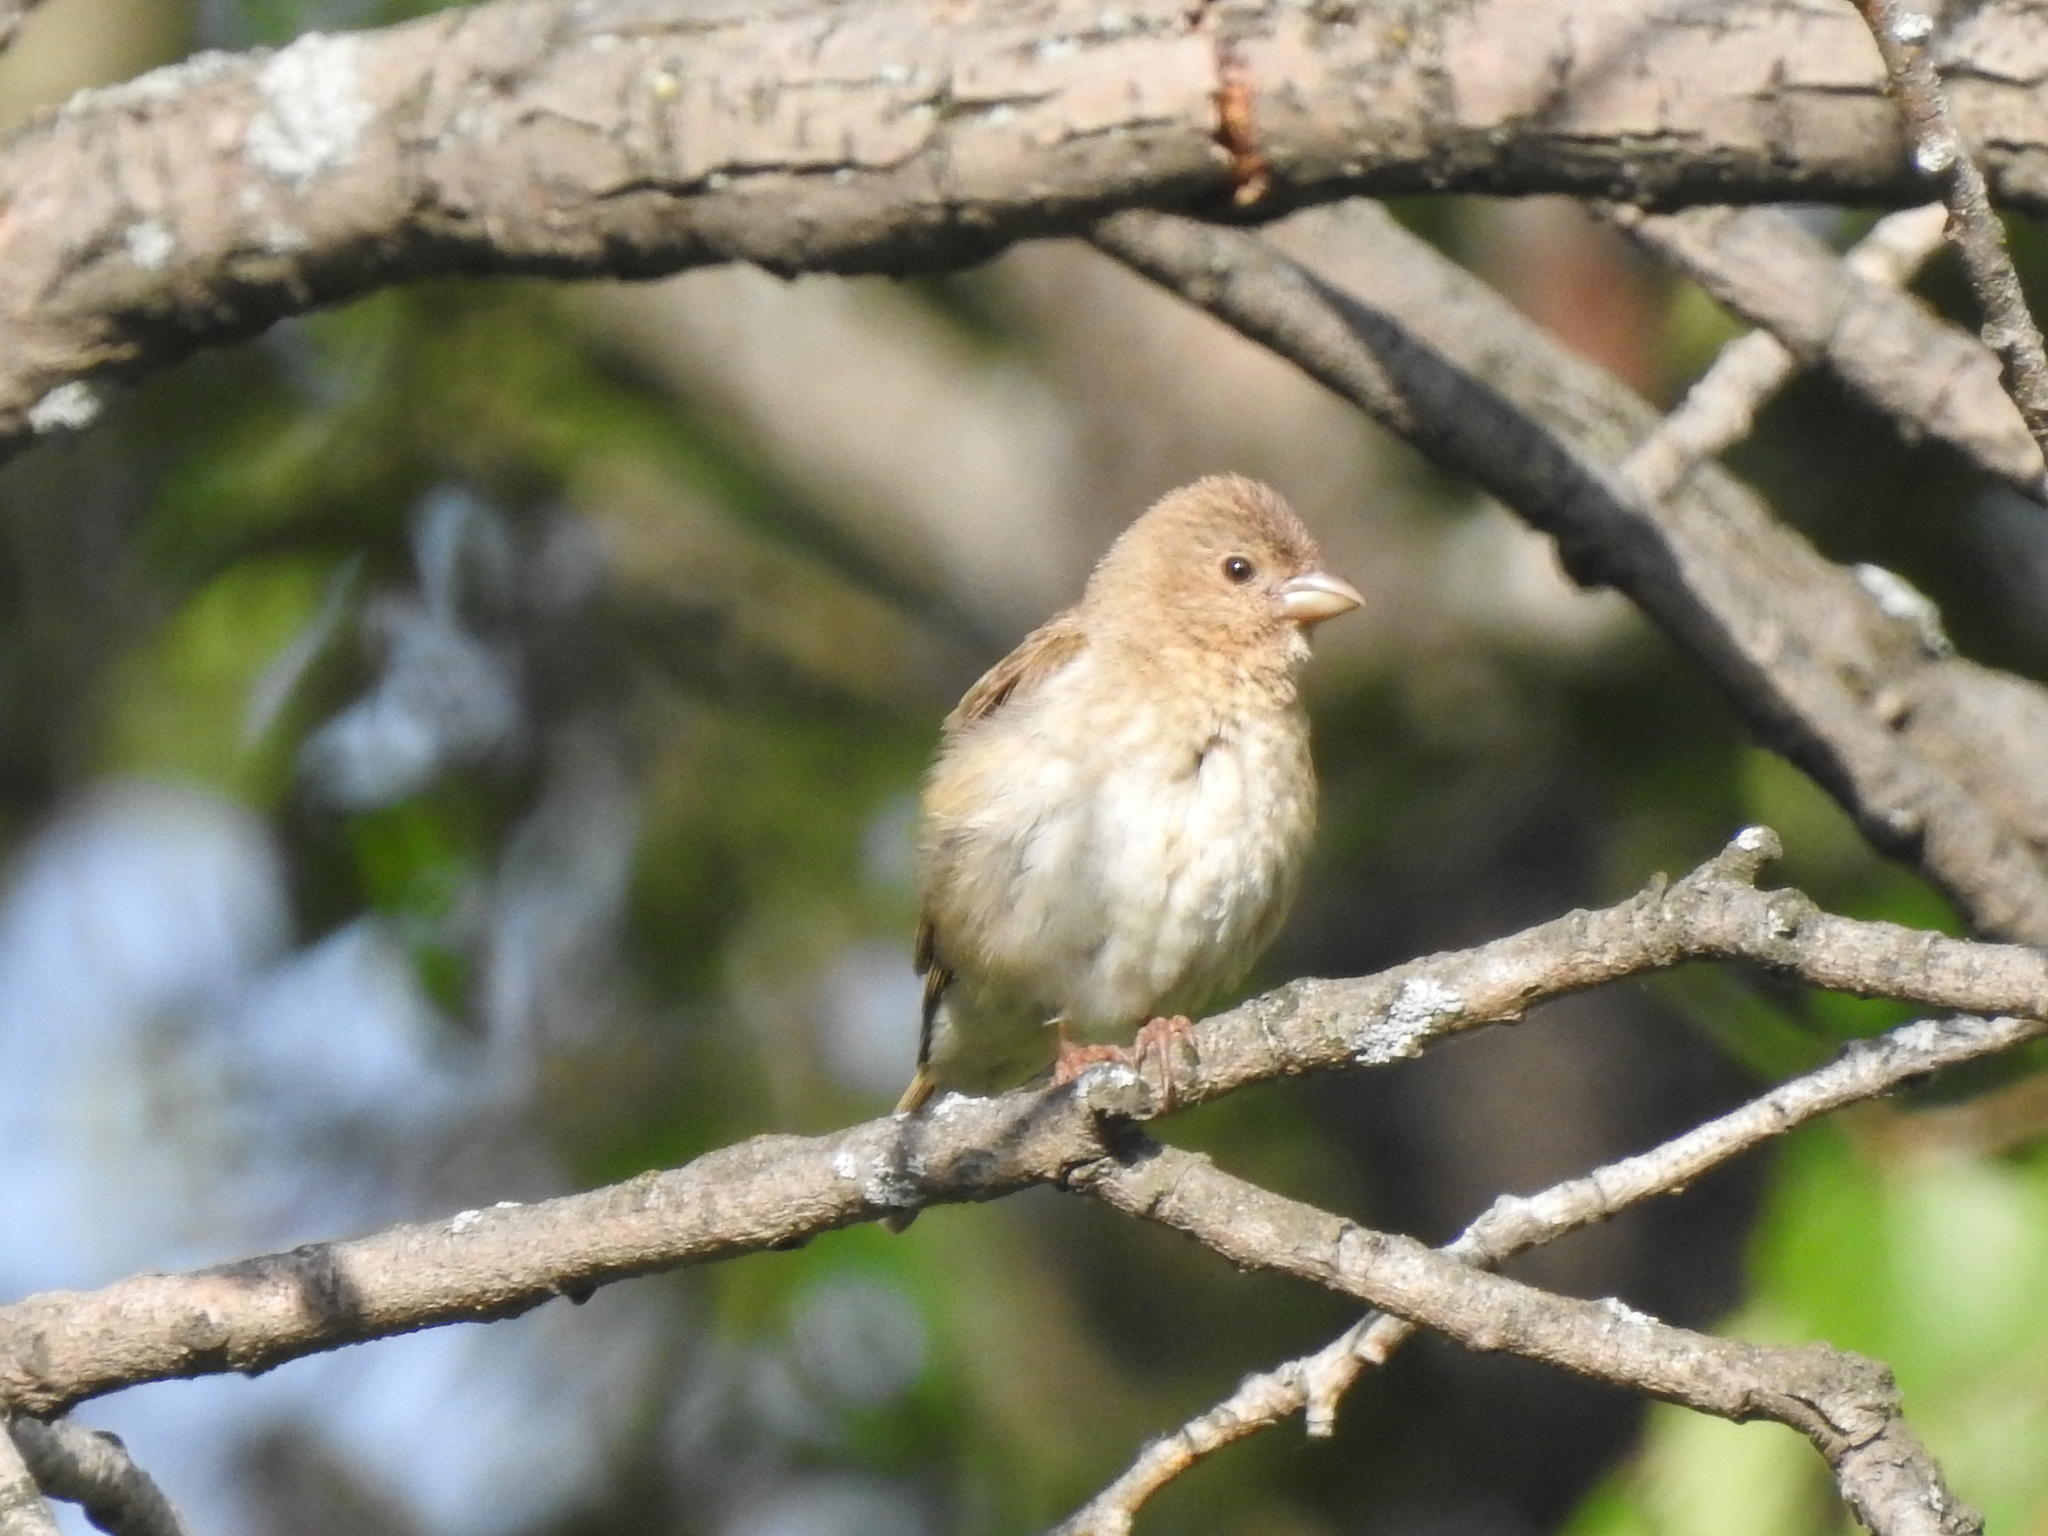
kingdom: Animalia
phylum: Chordata
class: Aves
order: Passeriformes
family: Fringillidae
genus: Carpodacus
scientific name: Carpodacus erythrinus
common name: Common rosefinch
